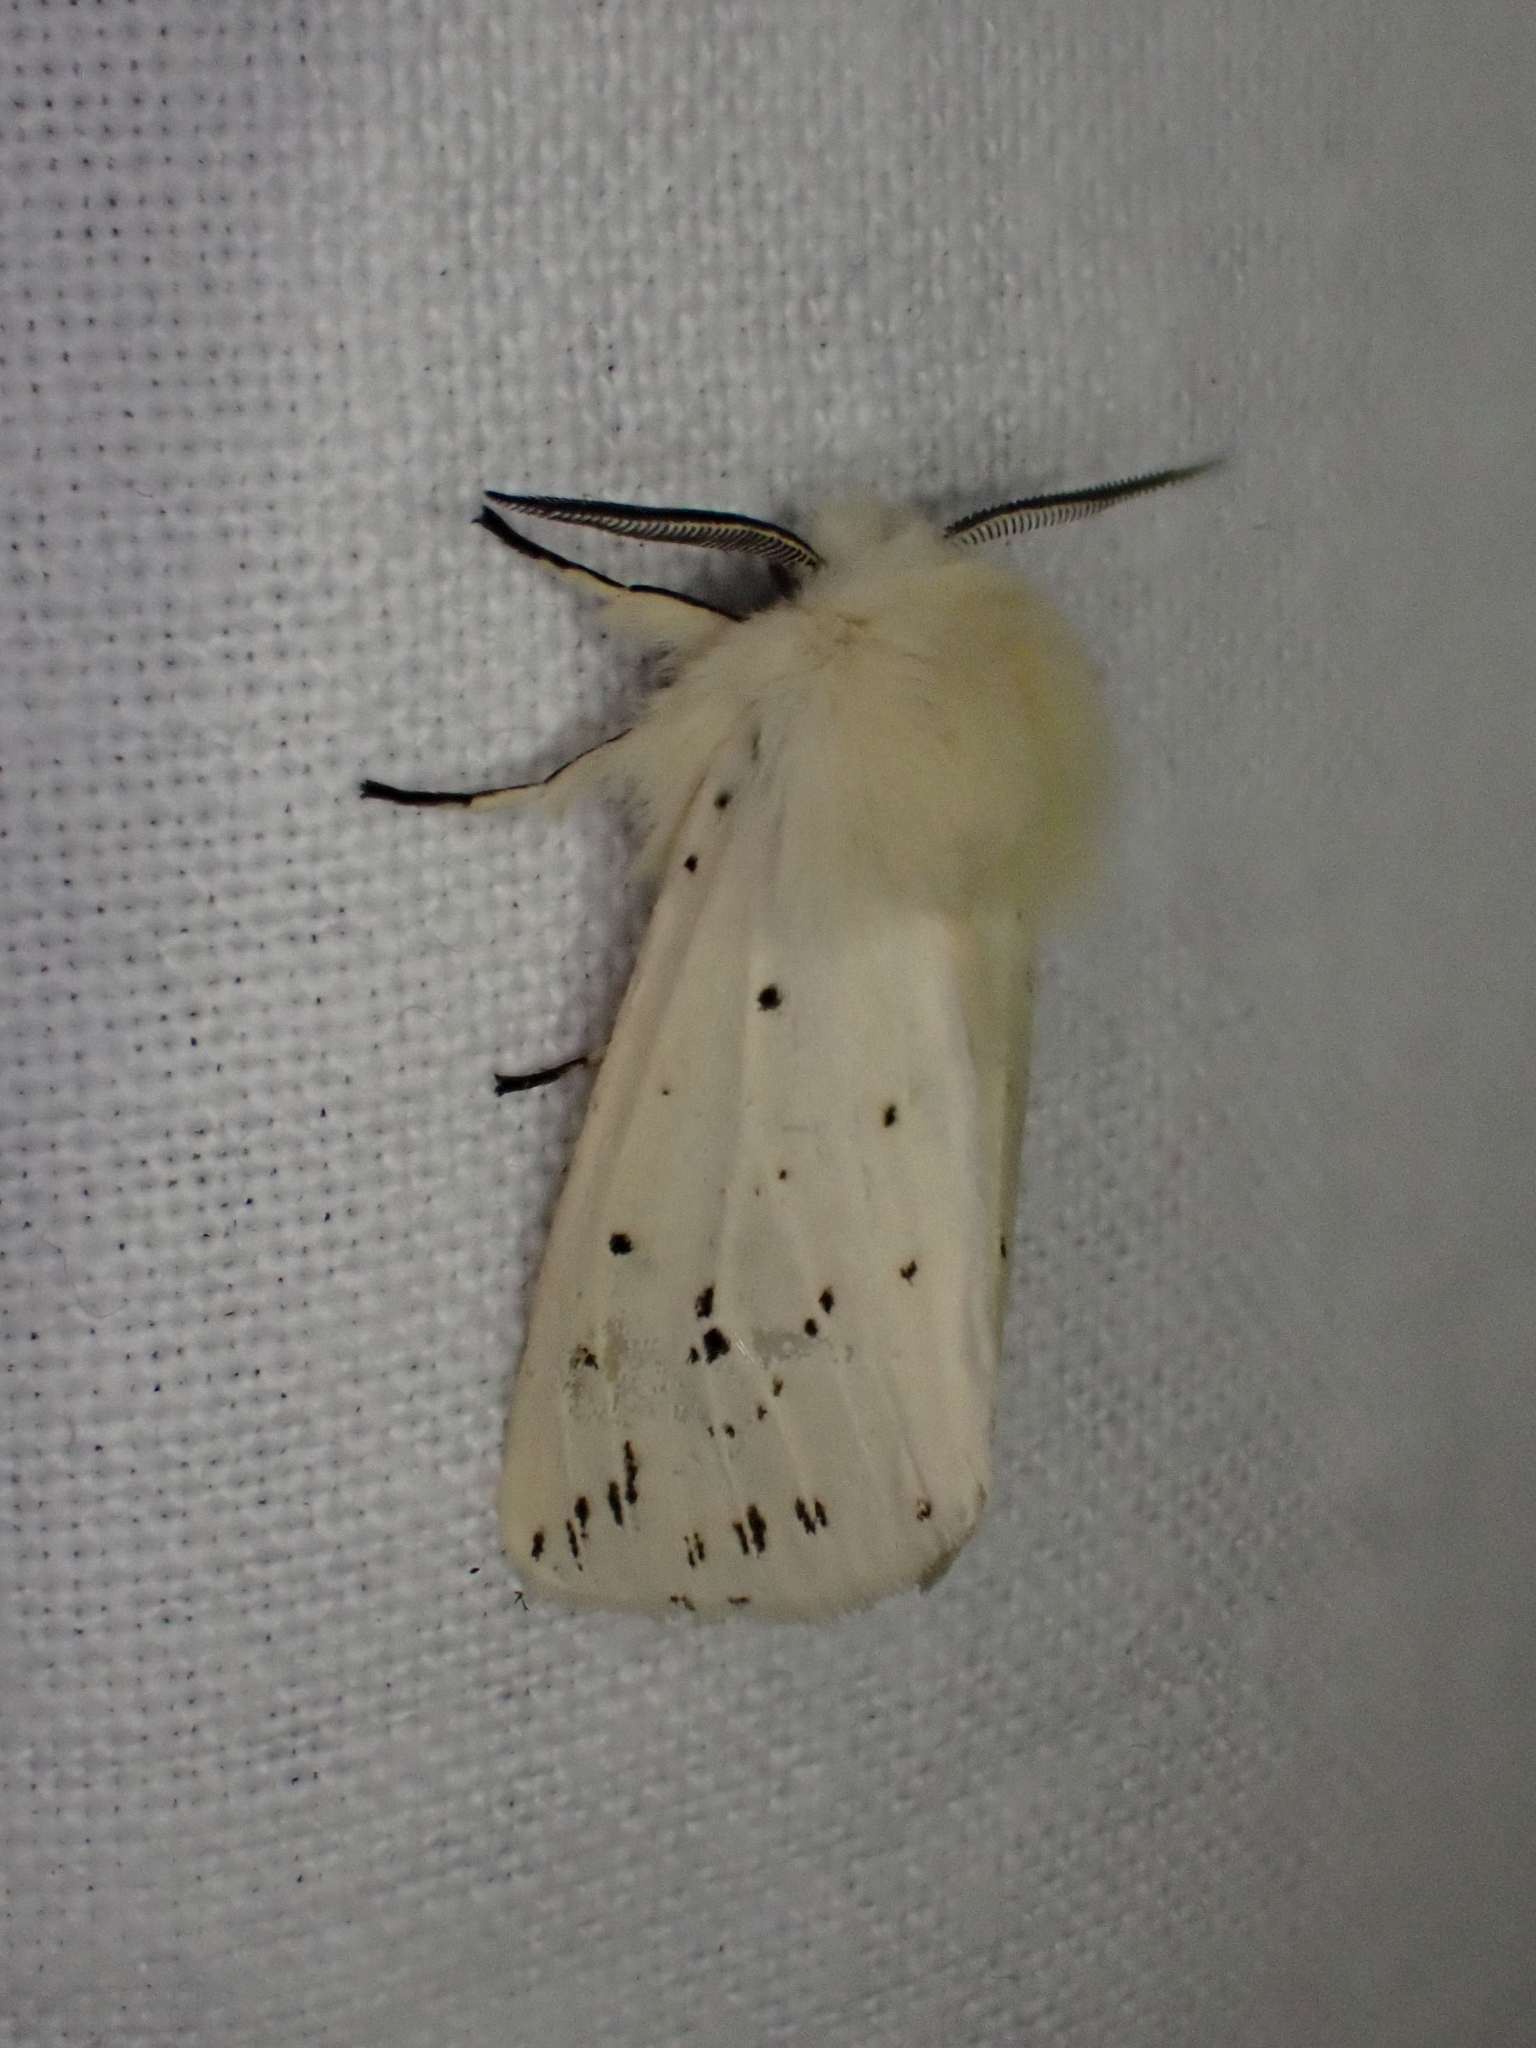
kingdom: Animalia
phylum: Arthropoda
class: Insecta
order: Lepidoptera
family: Erebidae
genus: Spilosoma
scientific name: Spilosoma lubricipeda
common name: White ermine
